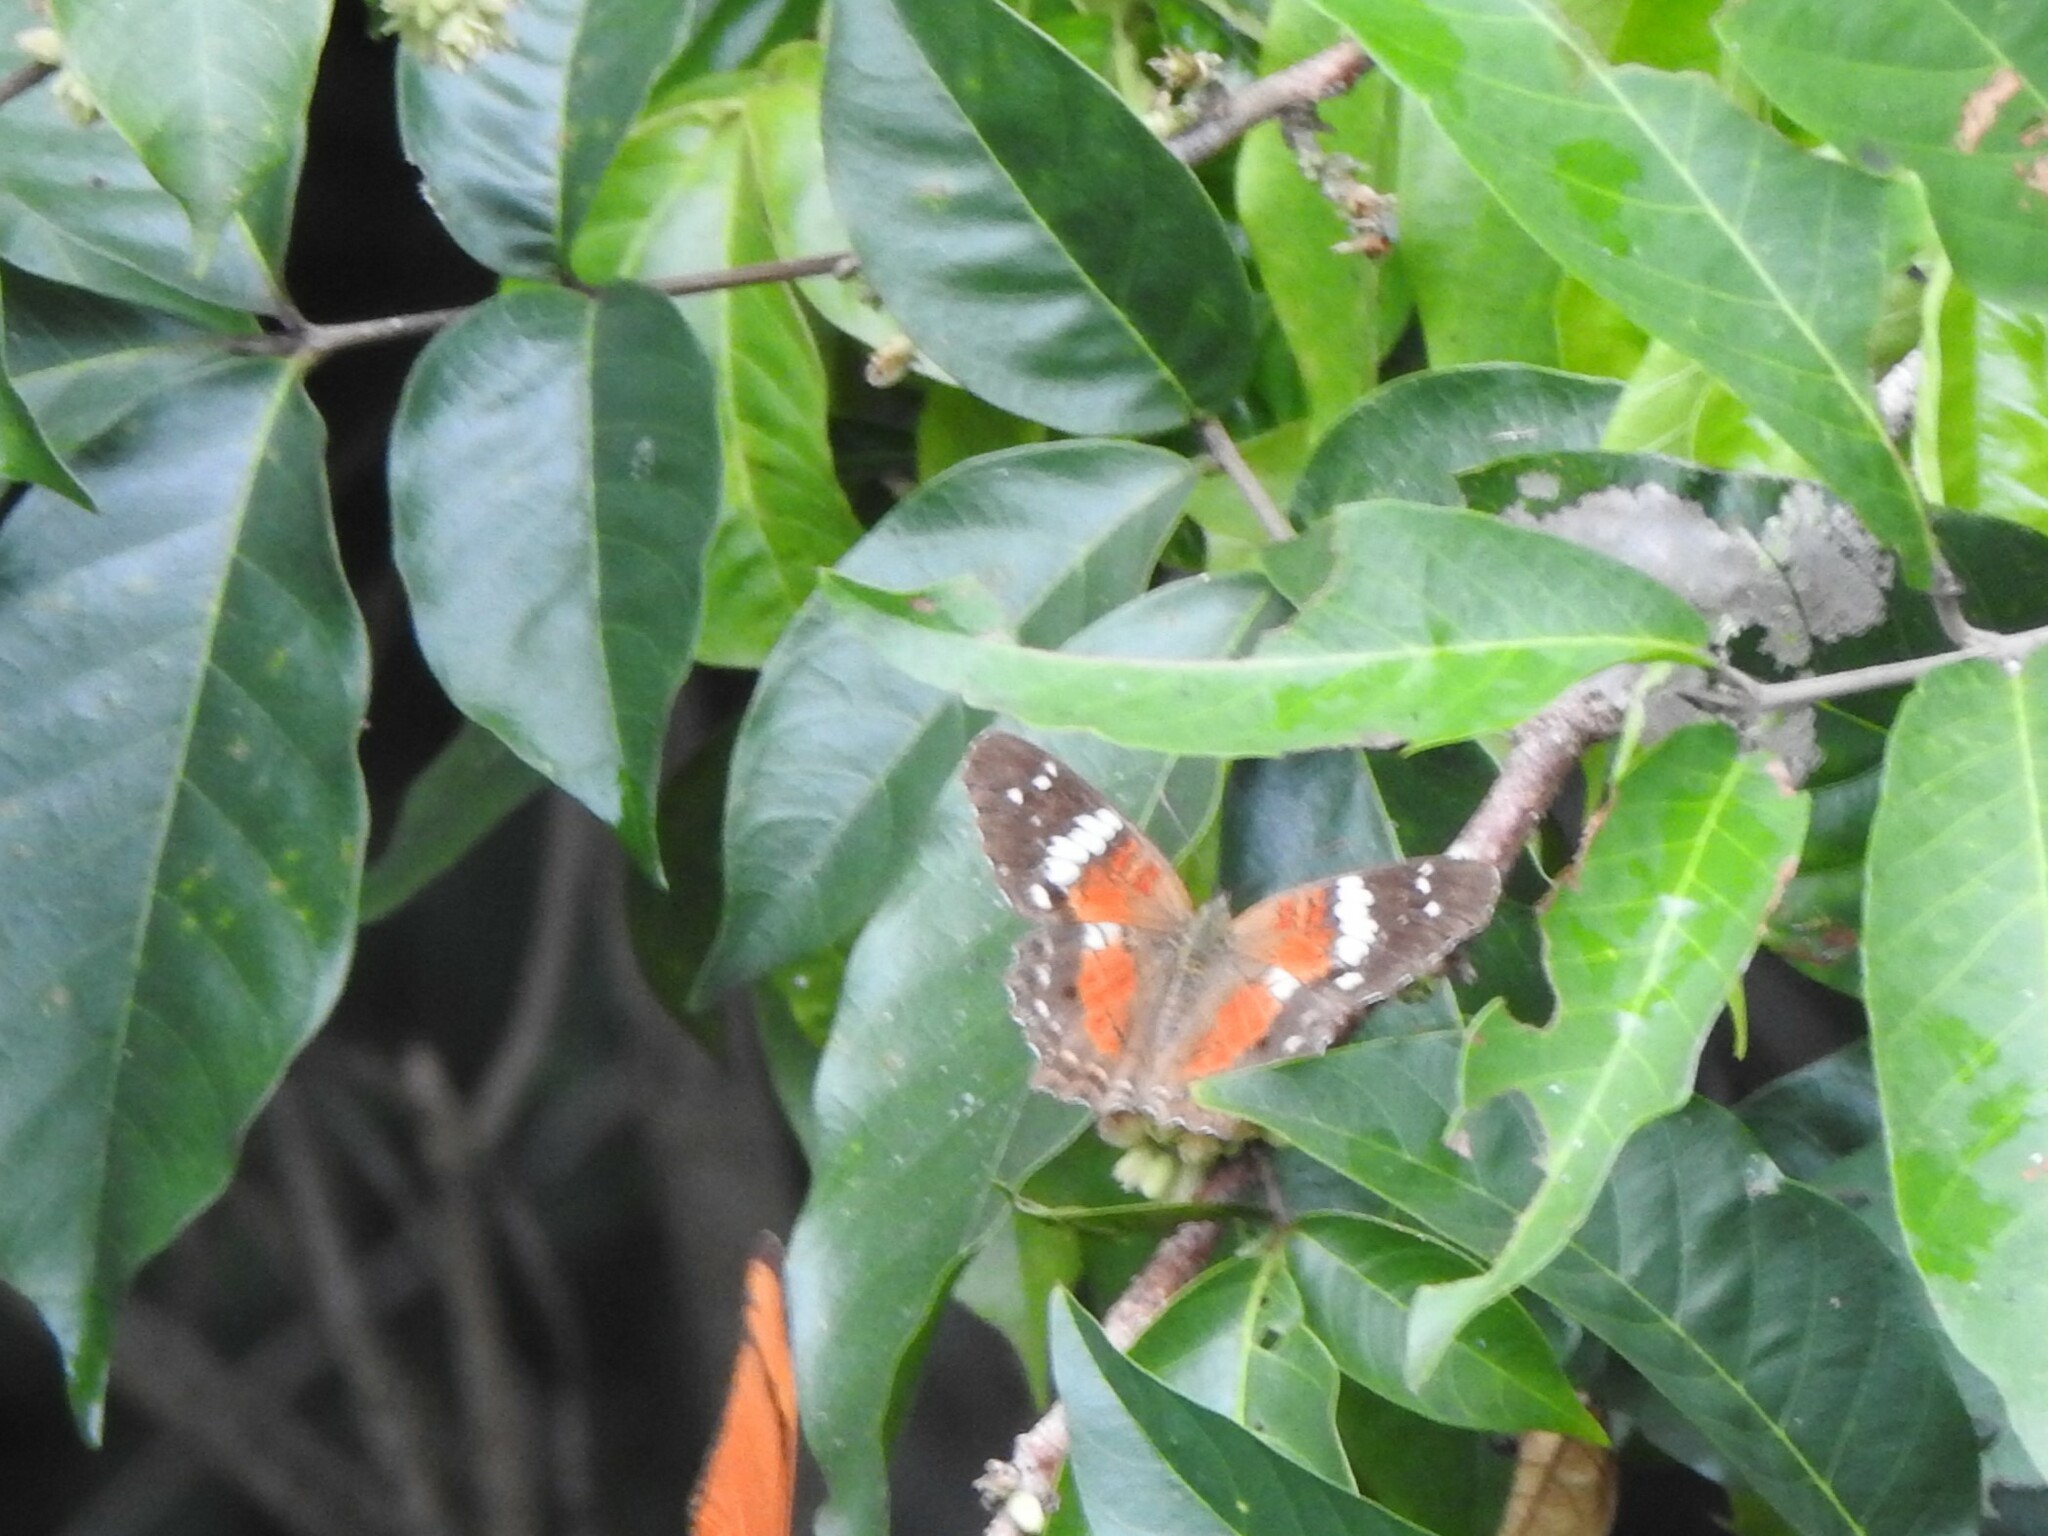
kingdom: Animalia
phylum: Arthropoda
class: Insecta
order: Lepidoptera
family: Nymphalidae
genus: Anartia
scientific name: Anartia amathea
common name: Red peacock
